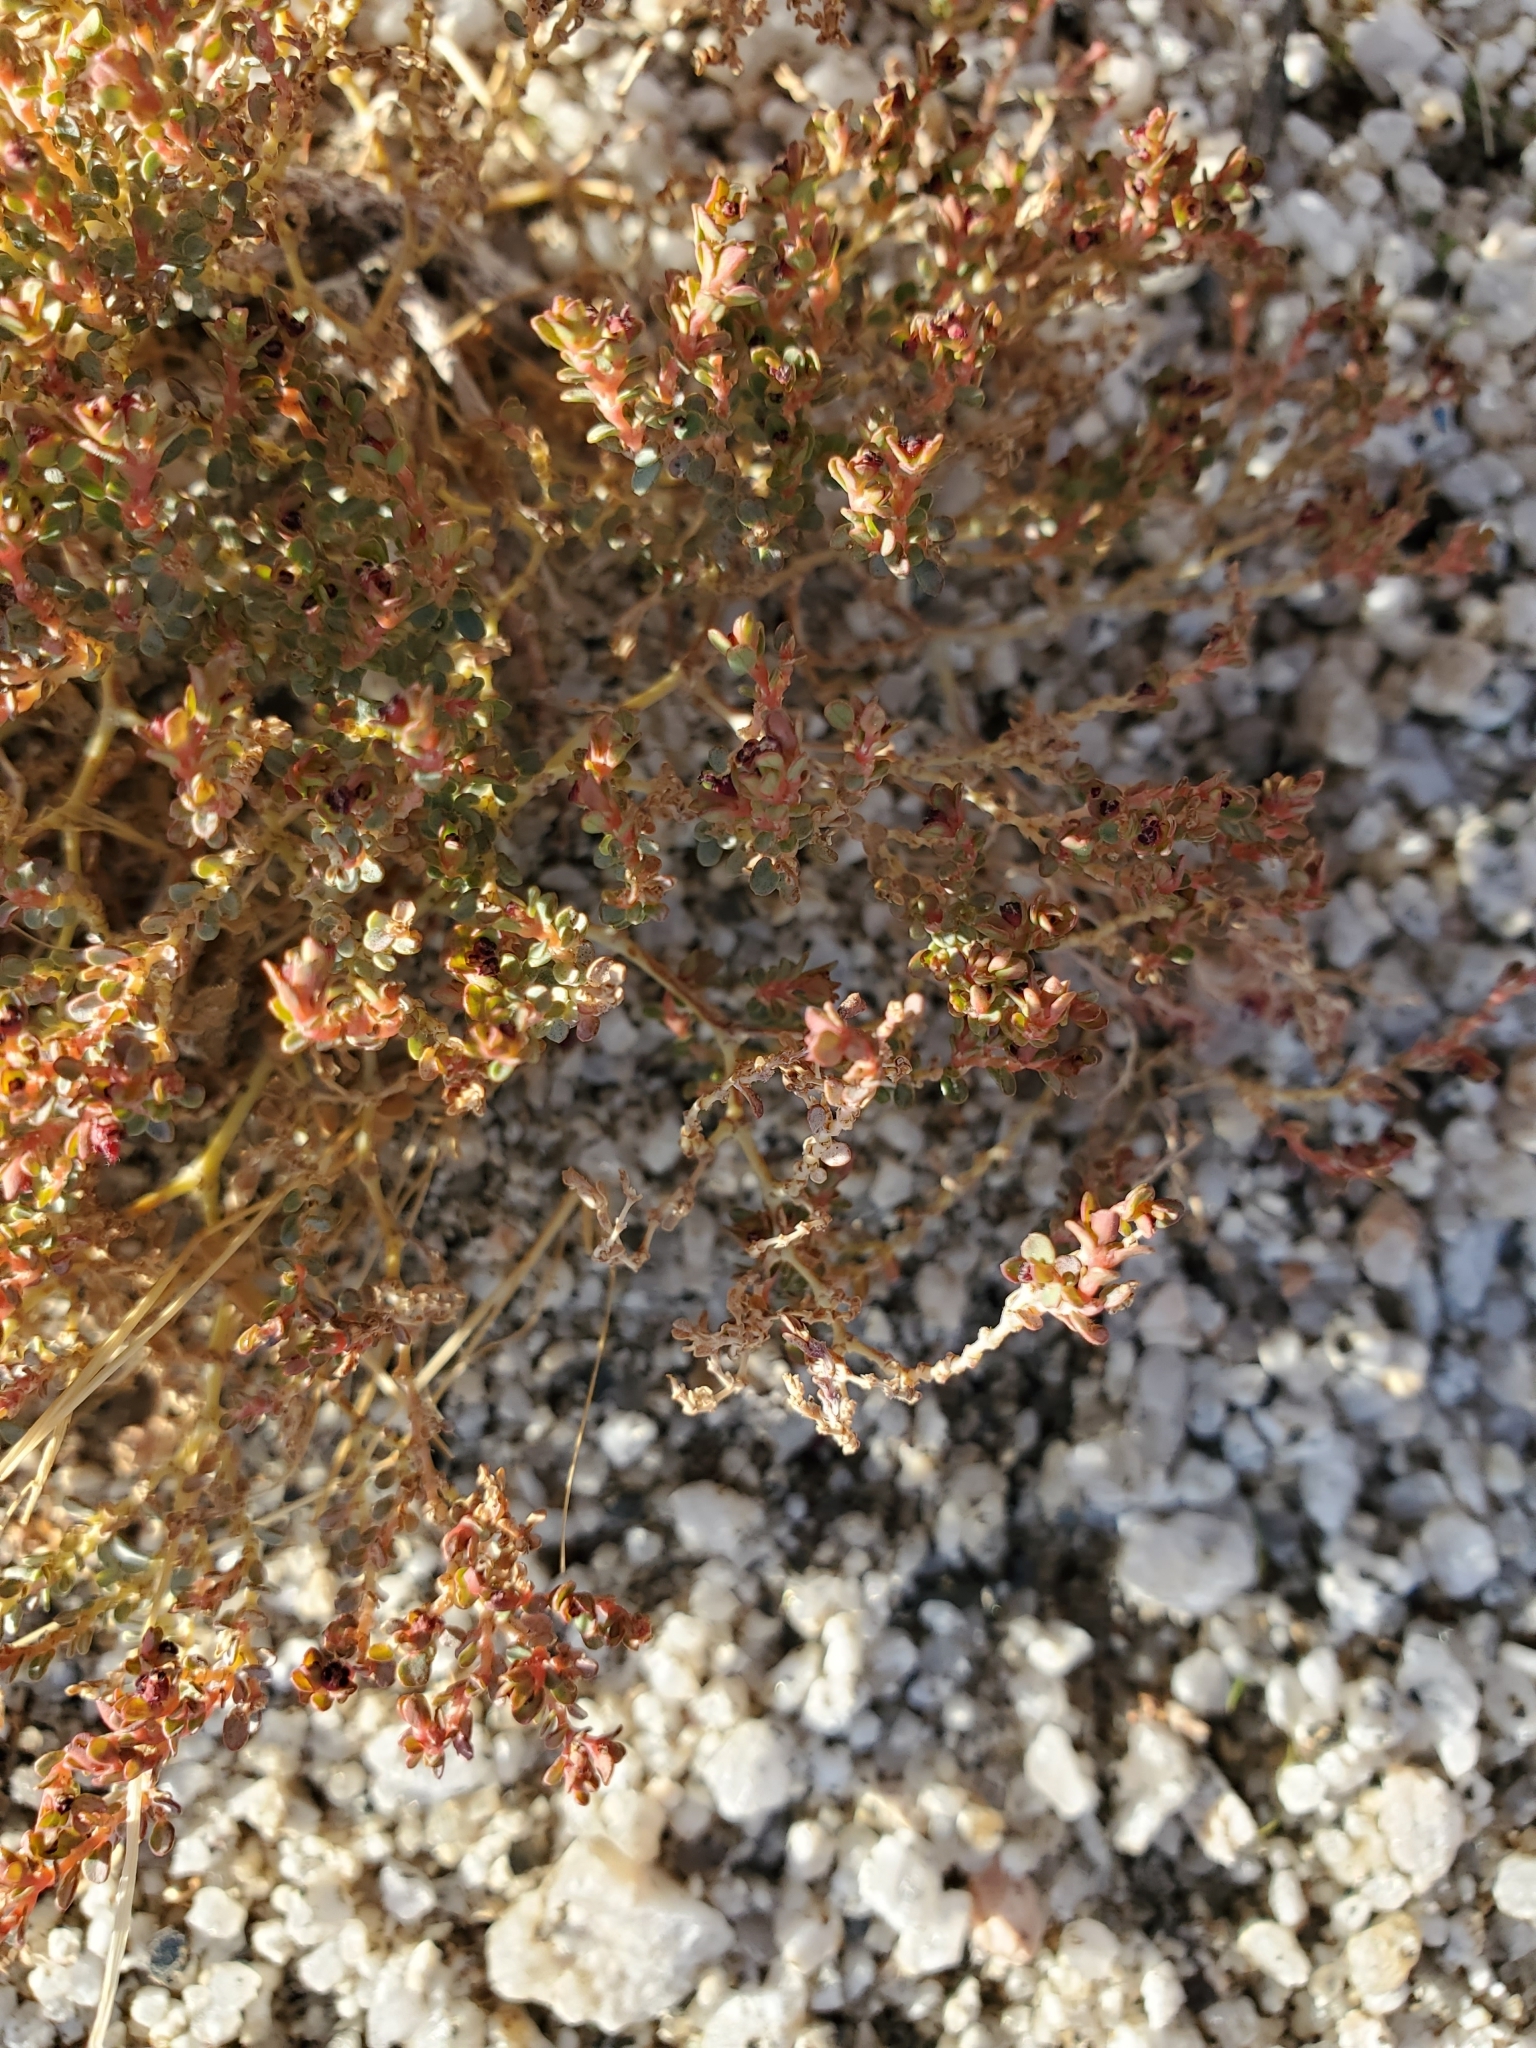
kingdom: Plantae
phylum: Tracheophyta
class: Magnoliopsida
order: Malpighiales
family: Euphorbiaceae
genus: Euphorbia
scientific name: Euphorbia polycarpa
